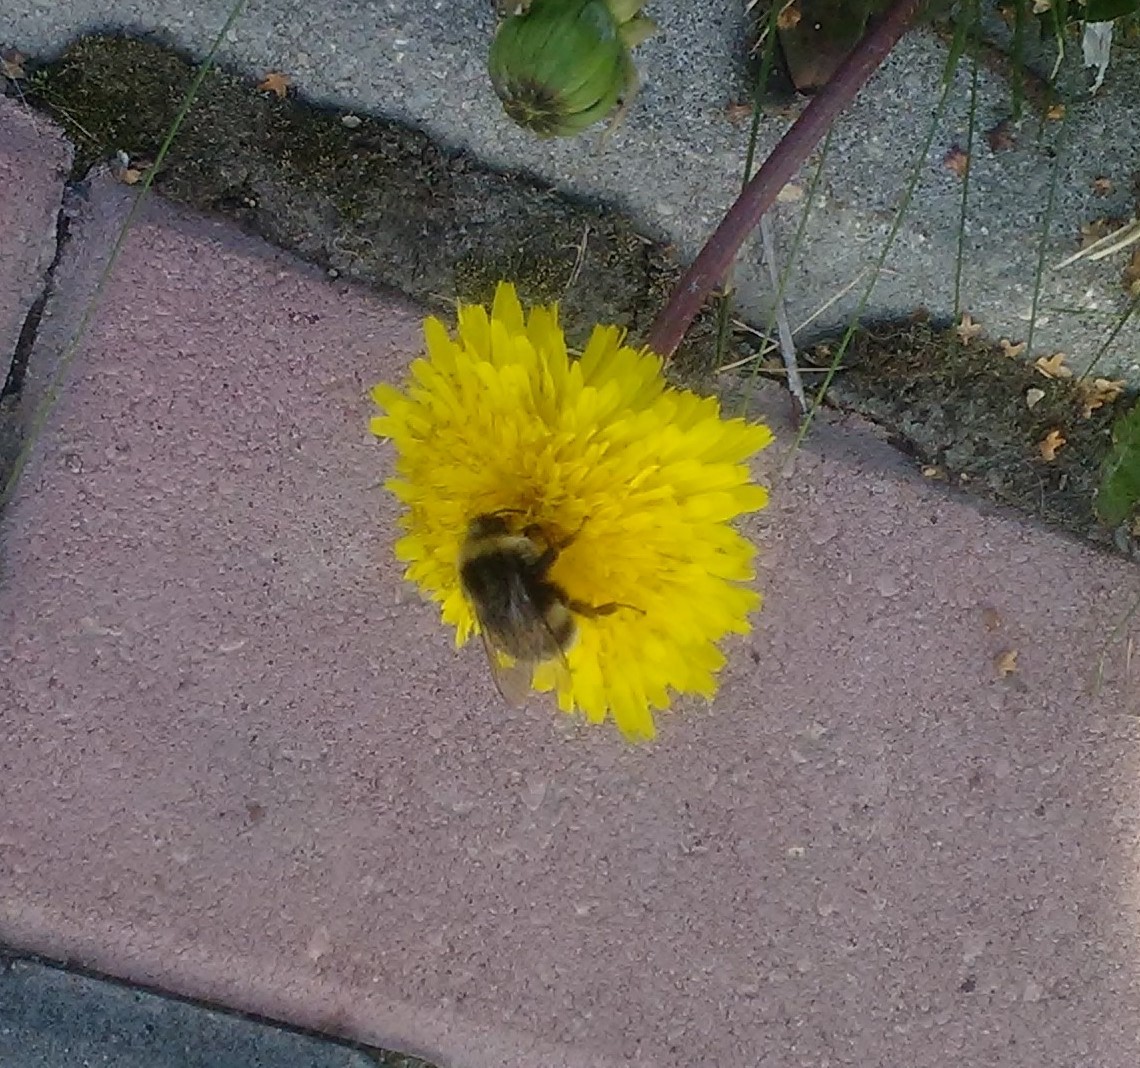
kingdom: Animalia
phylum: Arthropoda
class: Insecta
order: Hymenoptera
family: Apidae
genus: Bombus
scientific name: Bombus
